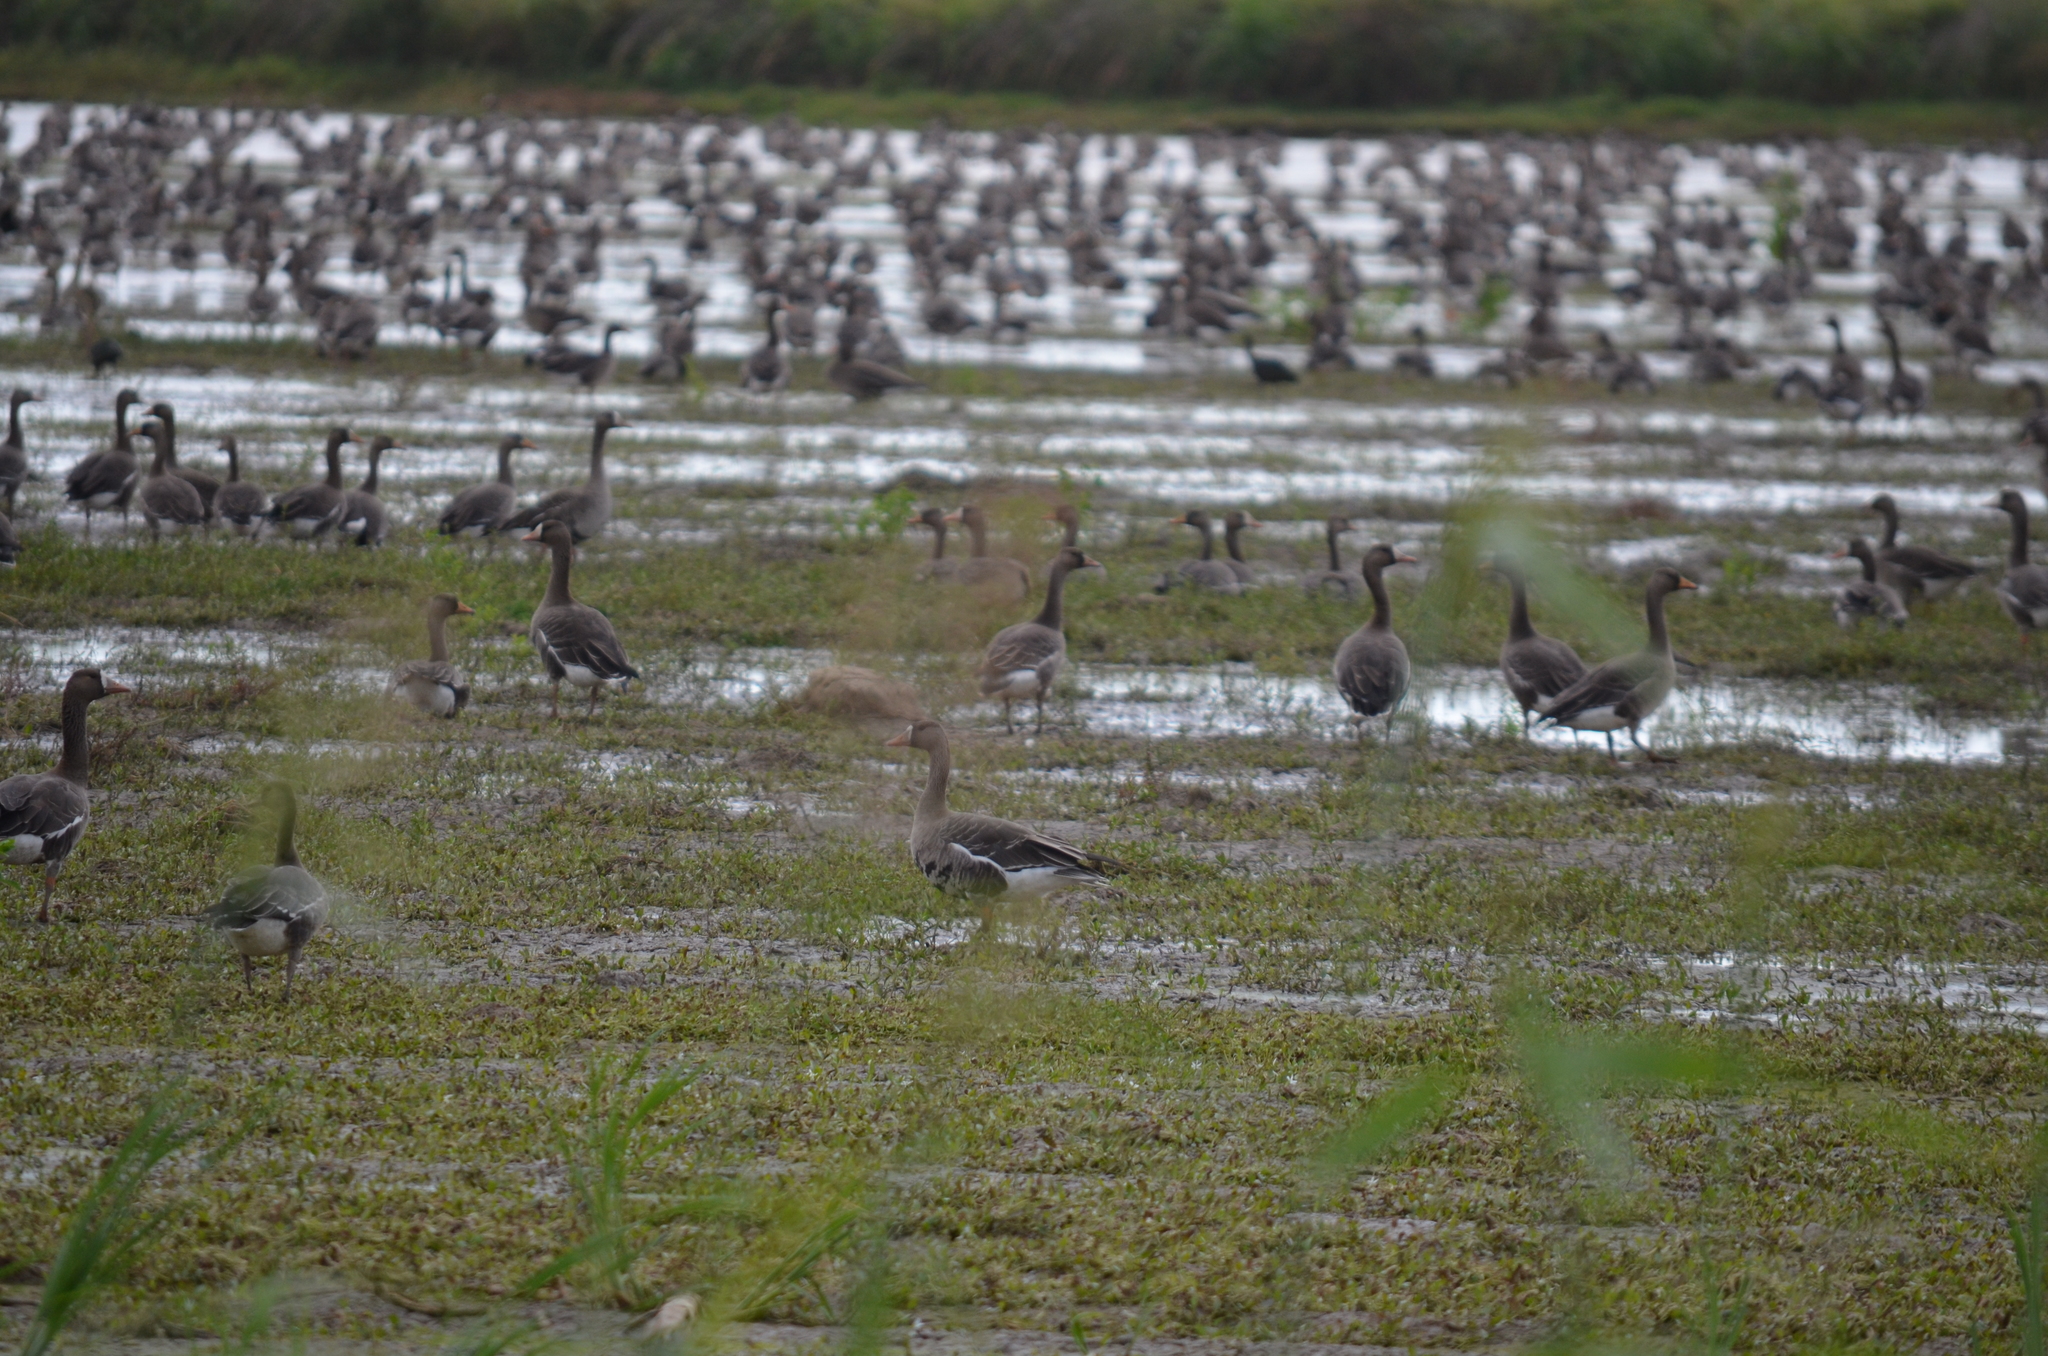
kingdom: Animalia
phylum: Chordata
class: Aves
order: Anseriformes
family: Anatidae
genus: Anser
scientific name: Anser albifrons
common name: Greater white-fronted goose
